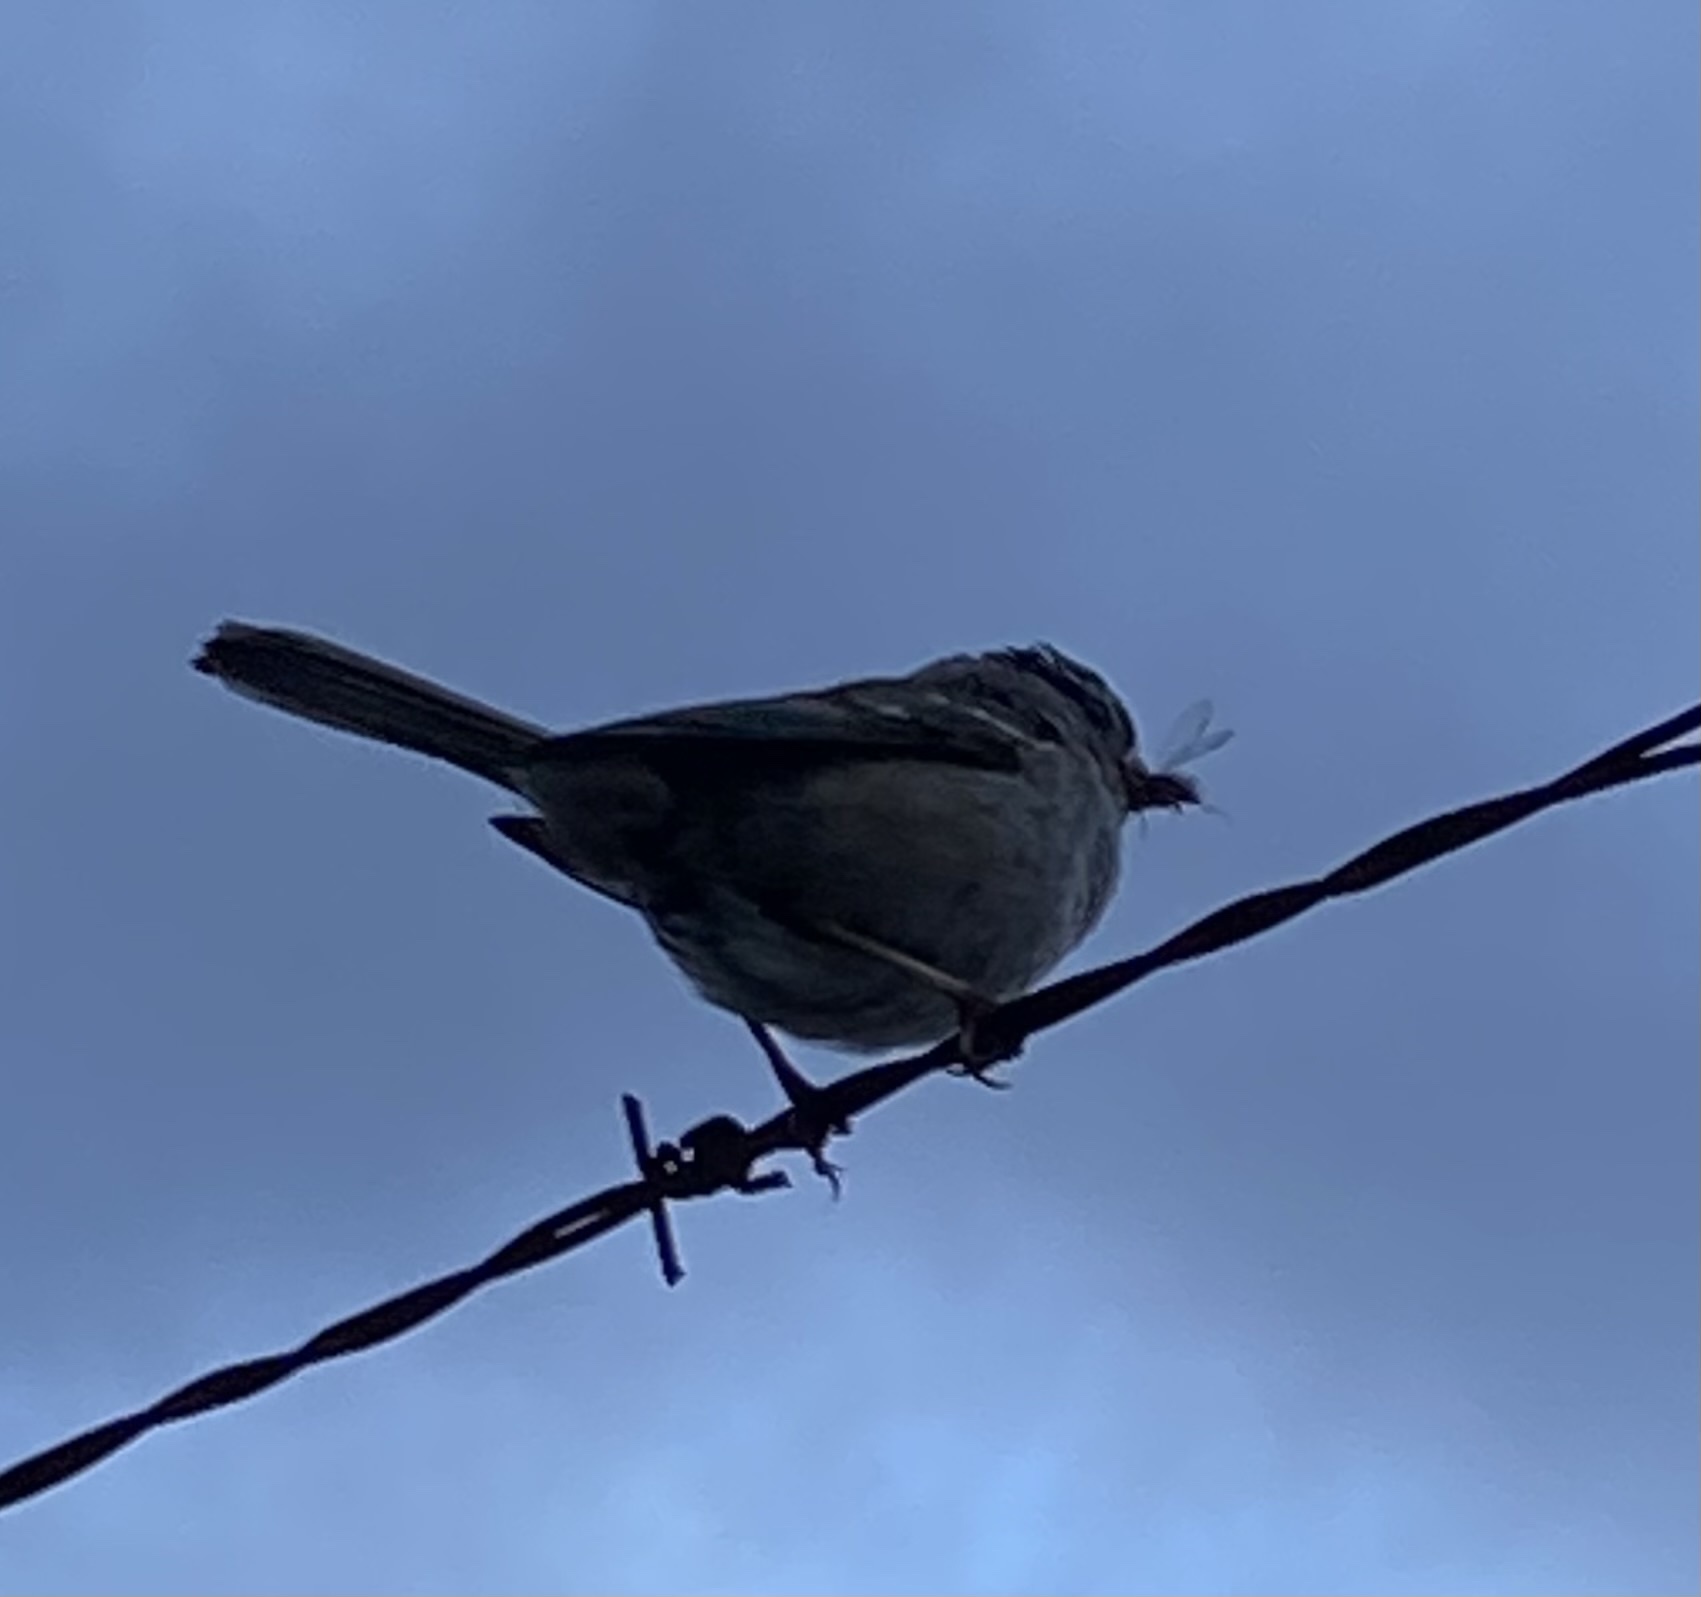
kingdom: Animalia
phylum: Chordata
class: Aves
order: Passeriformes
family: Passerellidae
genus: Zonotrichia
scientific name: Zonotrichia leucophrys
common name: White-crowned sparrow
